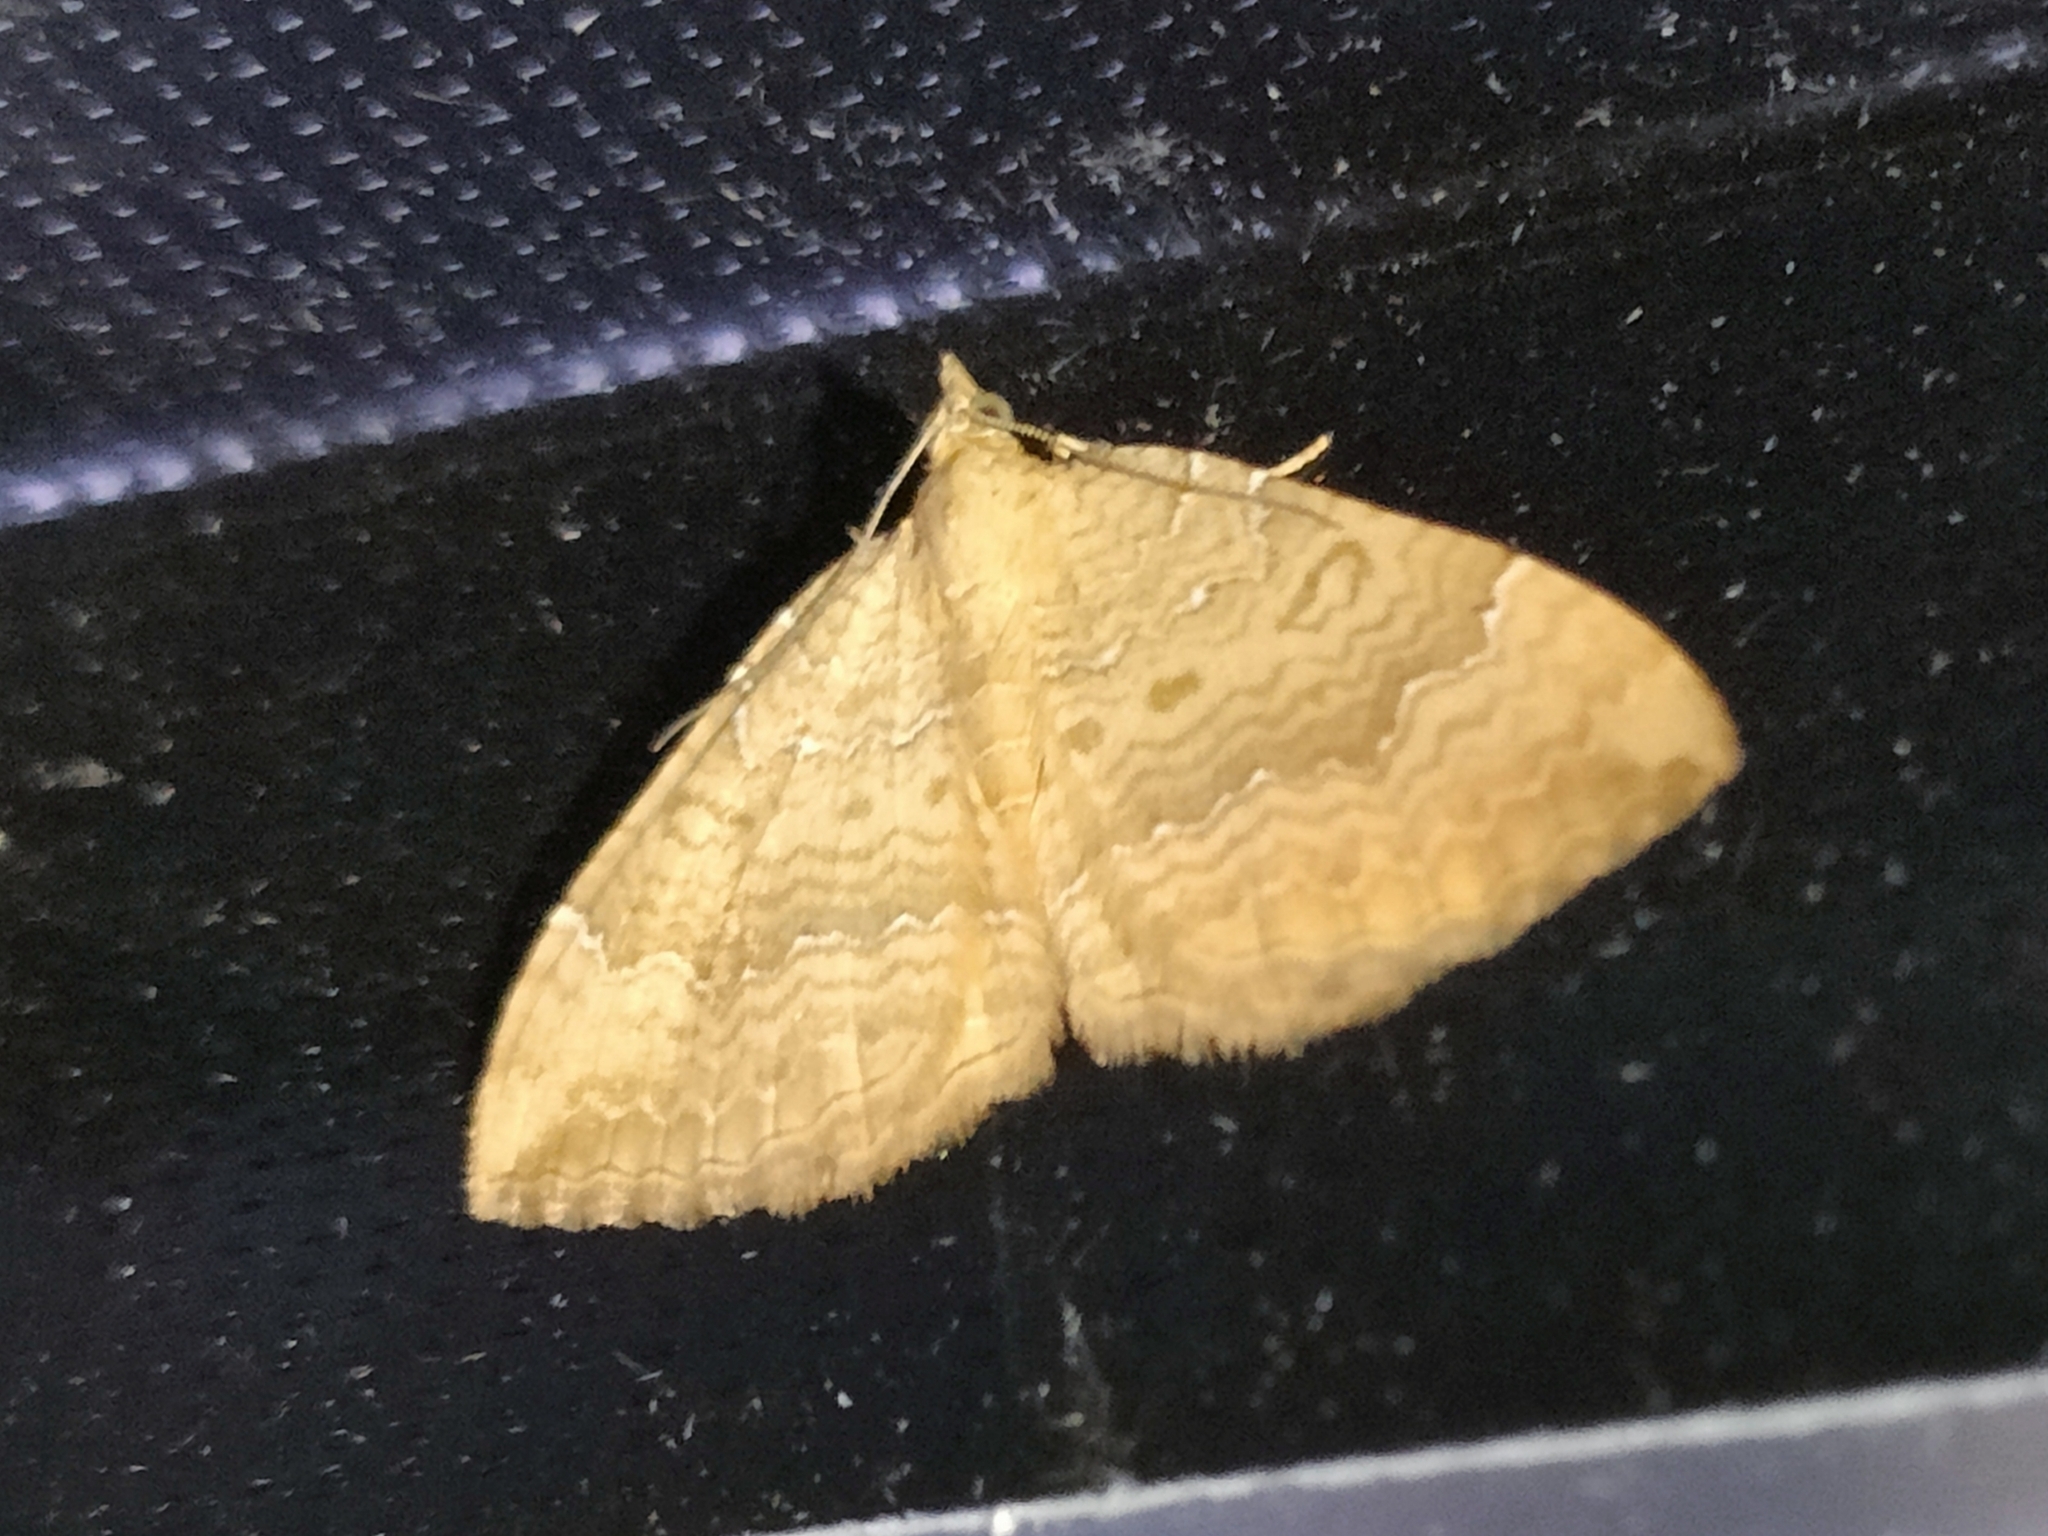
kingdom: Animalia
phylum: Arthropoda
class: Insecta
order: Lepidoptera
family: Geometridae
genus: Camptogramma
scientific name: Camptogramma bilineata
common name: Yellow shell
